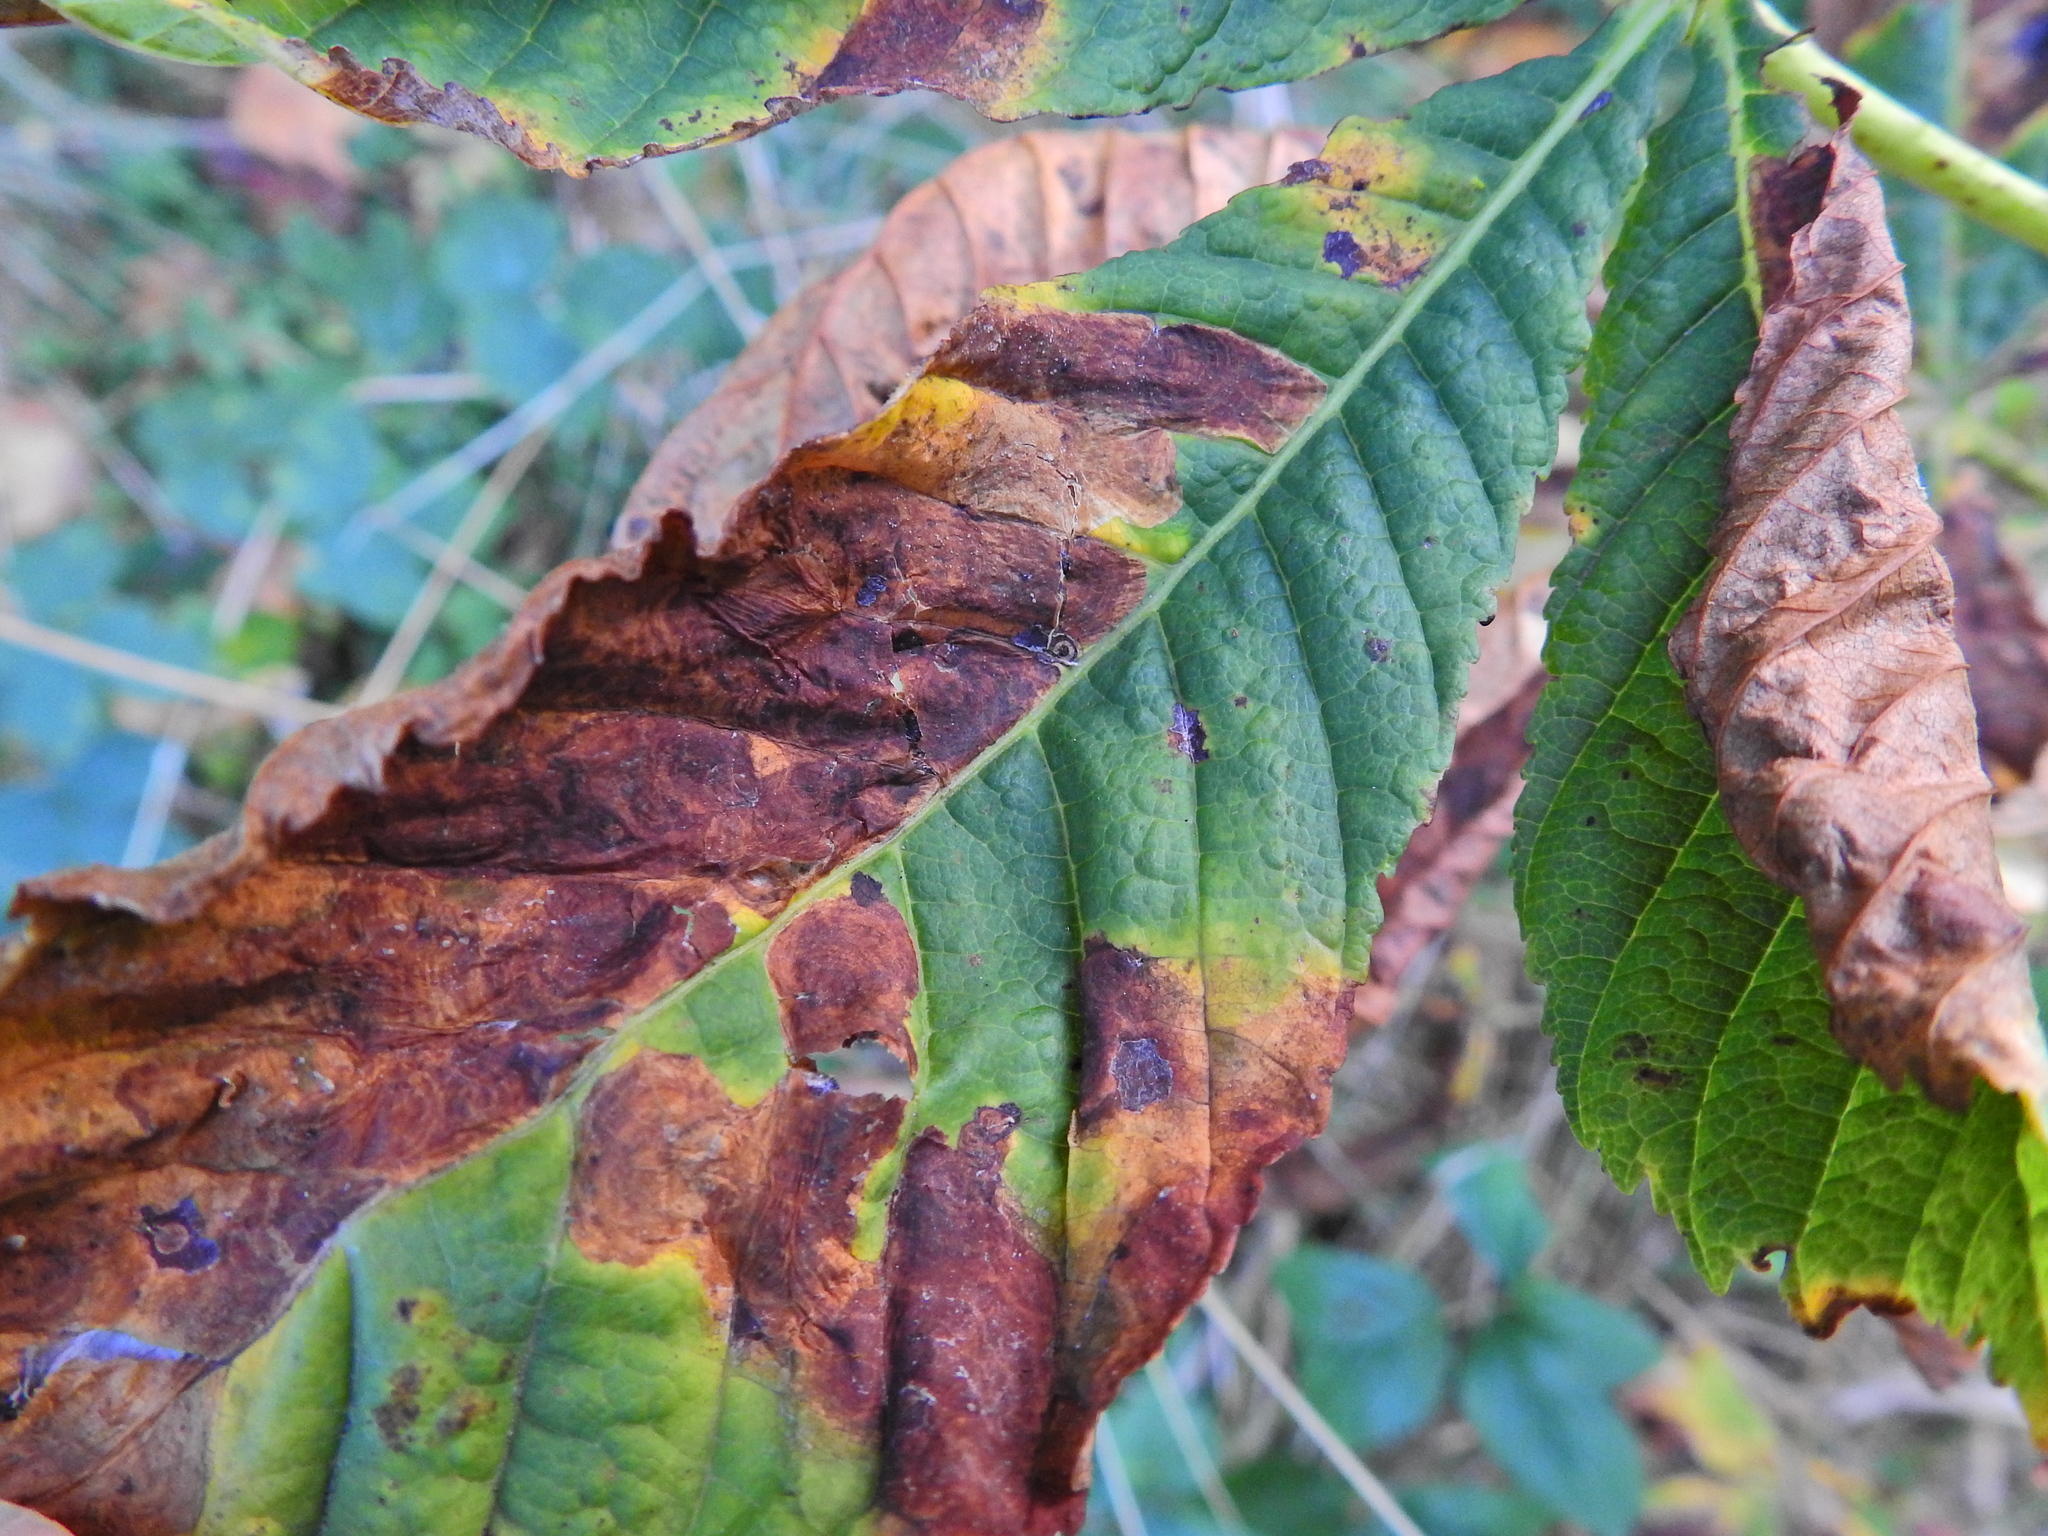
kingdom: Fungi
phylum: Ascomycota
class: Dothideomycetes
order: Botryosphaeriales
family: Phyllostictaceae
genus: Phyllosticta
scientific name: Phyllosticta paviae
